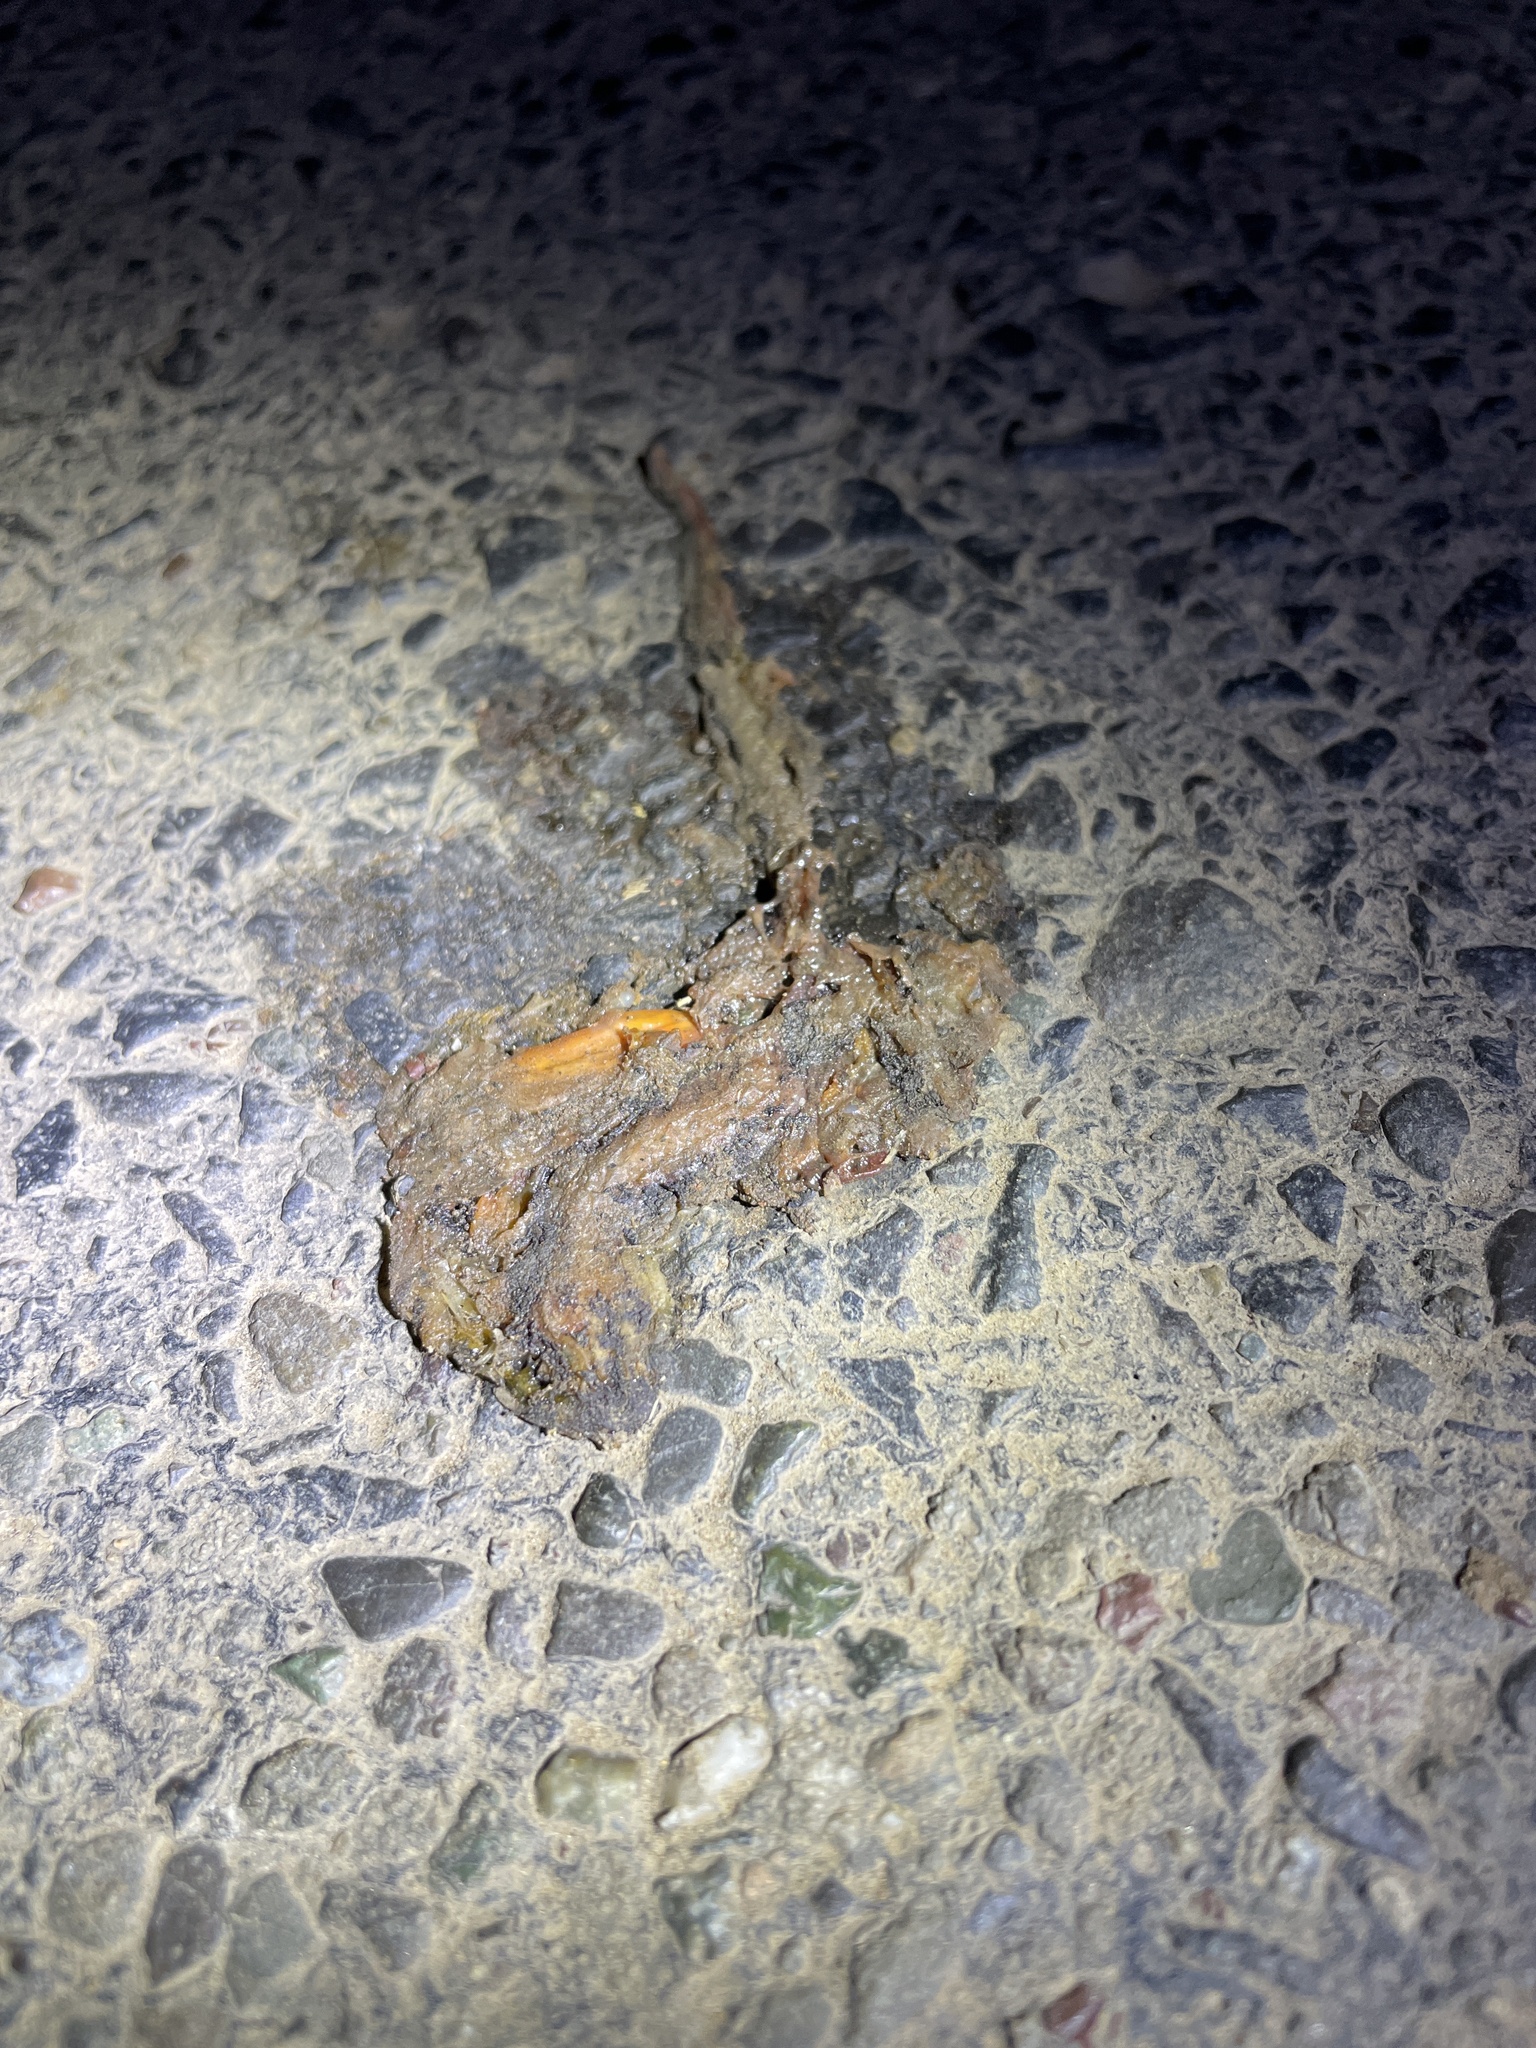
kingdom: Animalia
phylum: Chordata
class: Amphibia
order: Caudata
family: Salamandridae
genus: Taricha
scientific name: Taricha
